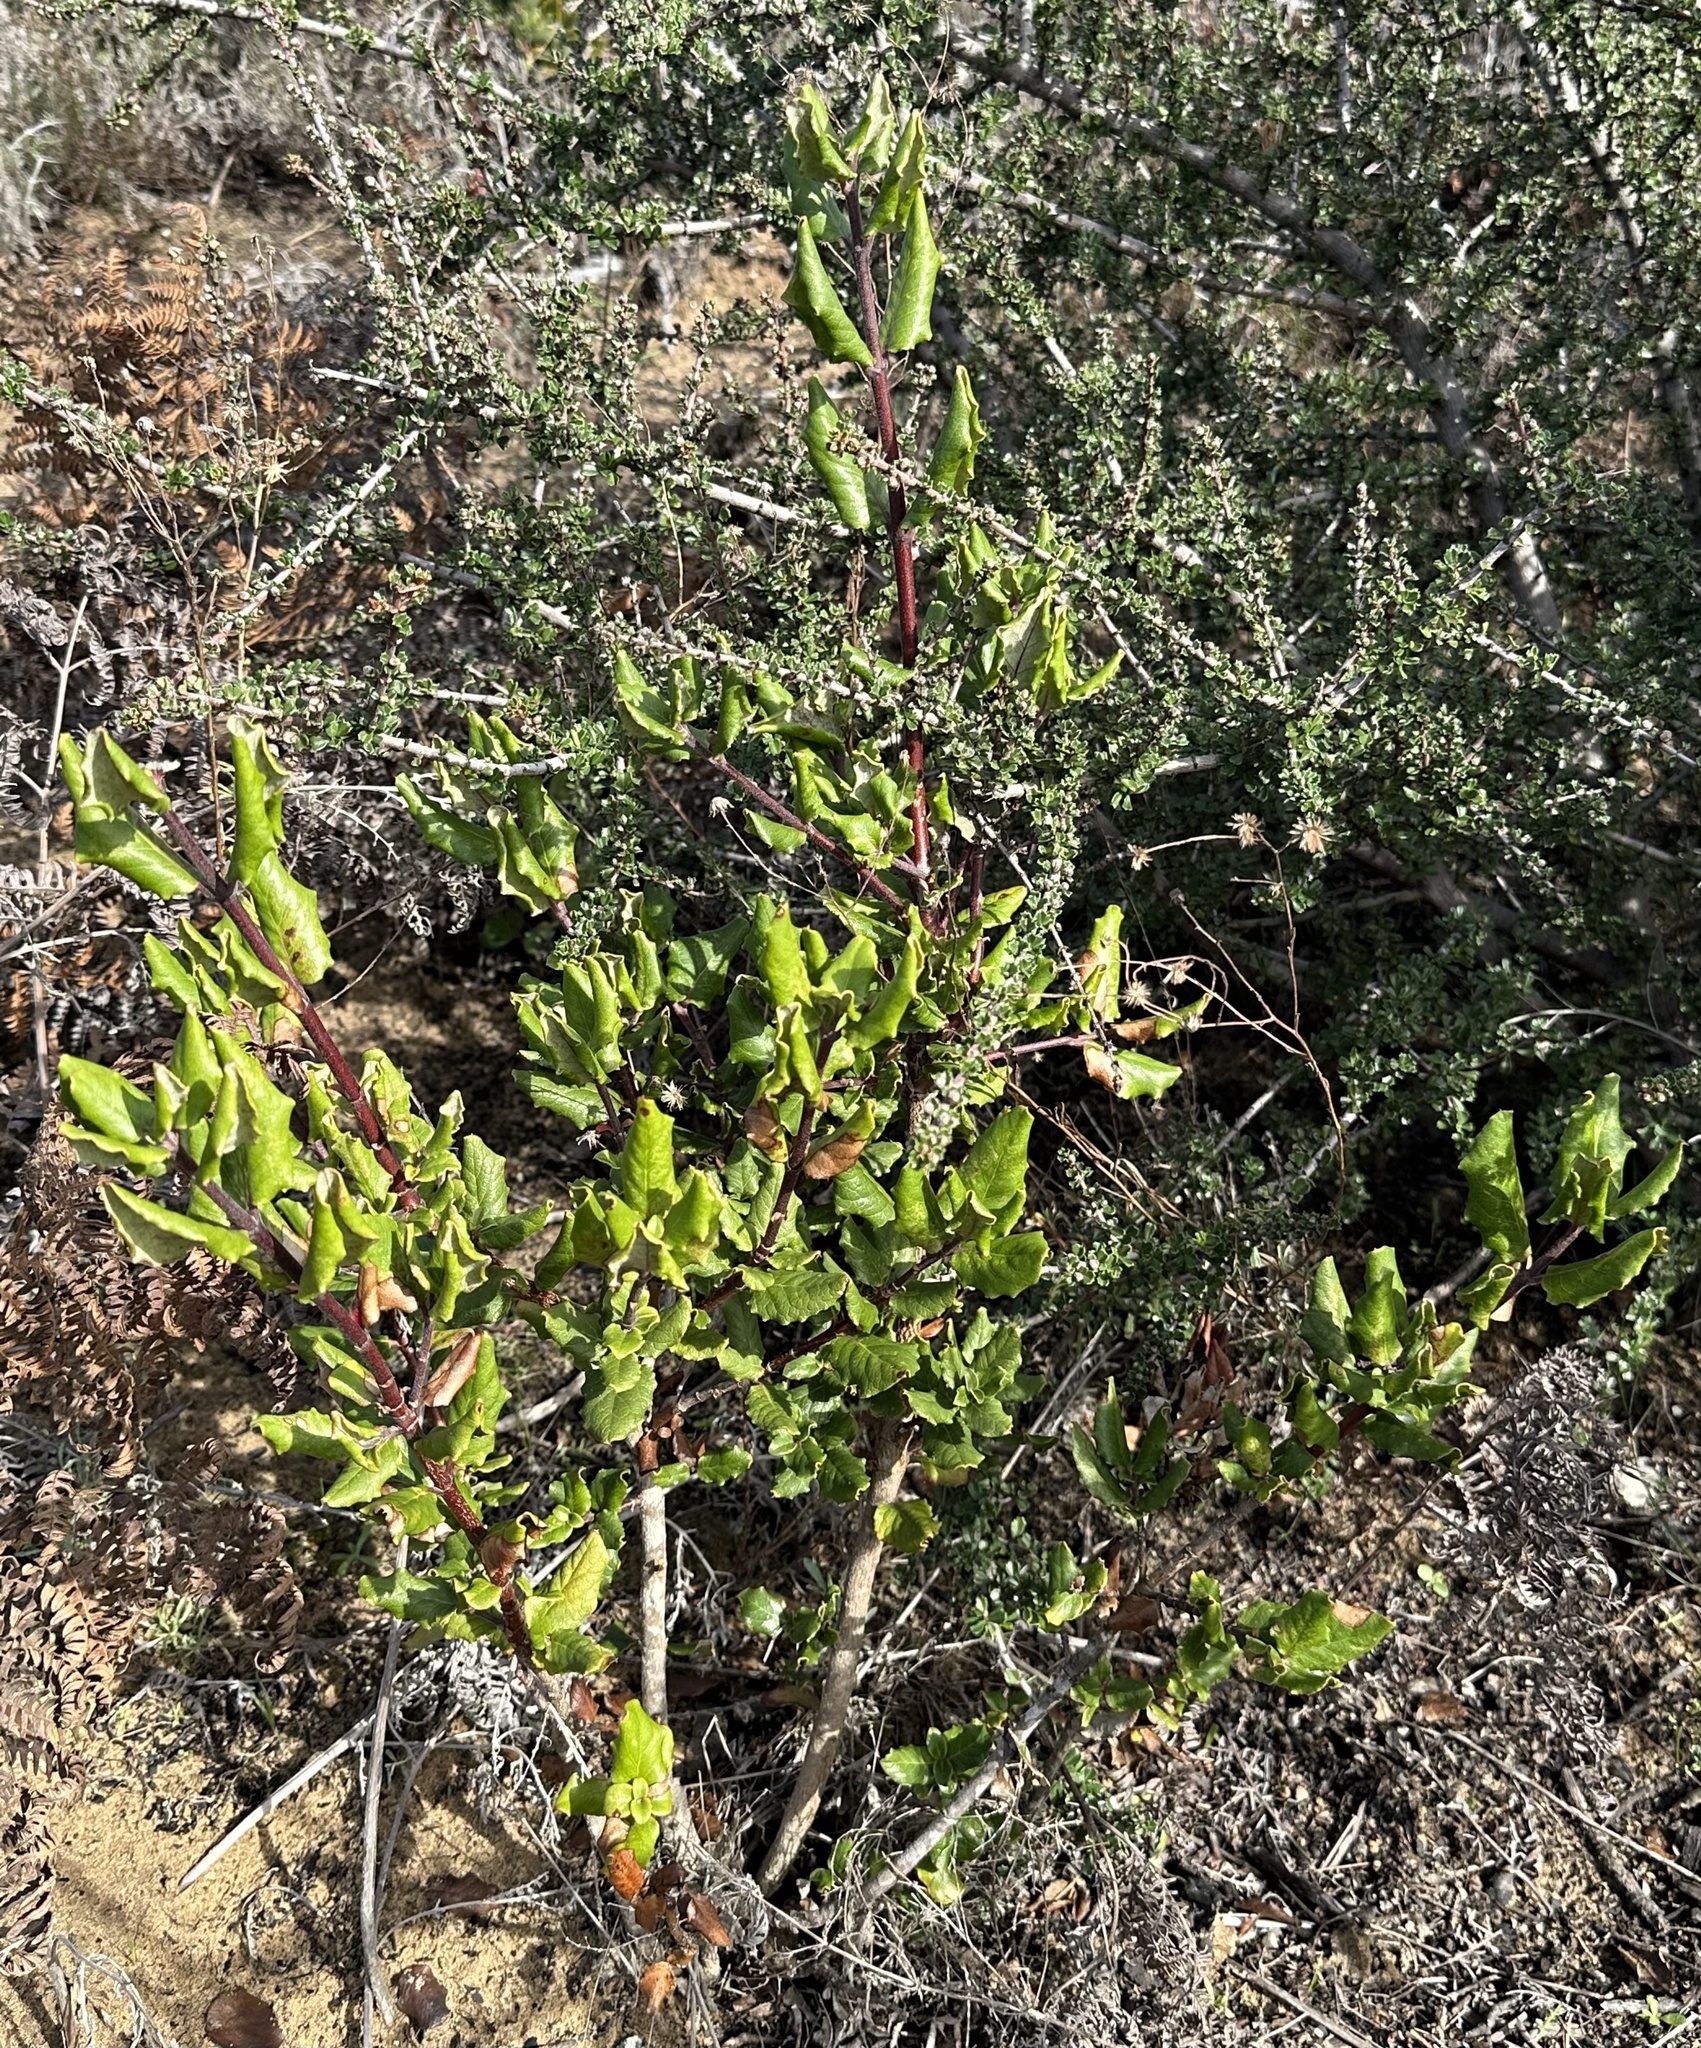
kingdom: Plantae
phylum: Tracheophyta
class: Magnoliopsida
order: Garryales
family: Garryaceae
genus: Garrya
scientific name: Garrya elliptica
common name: Silk-tassel
